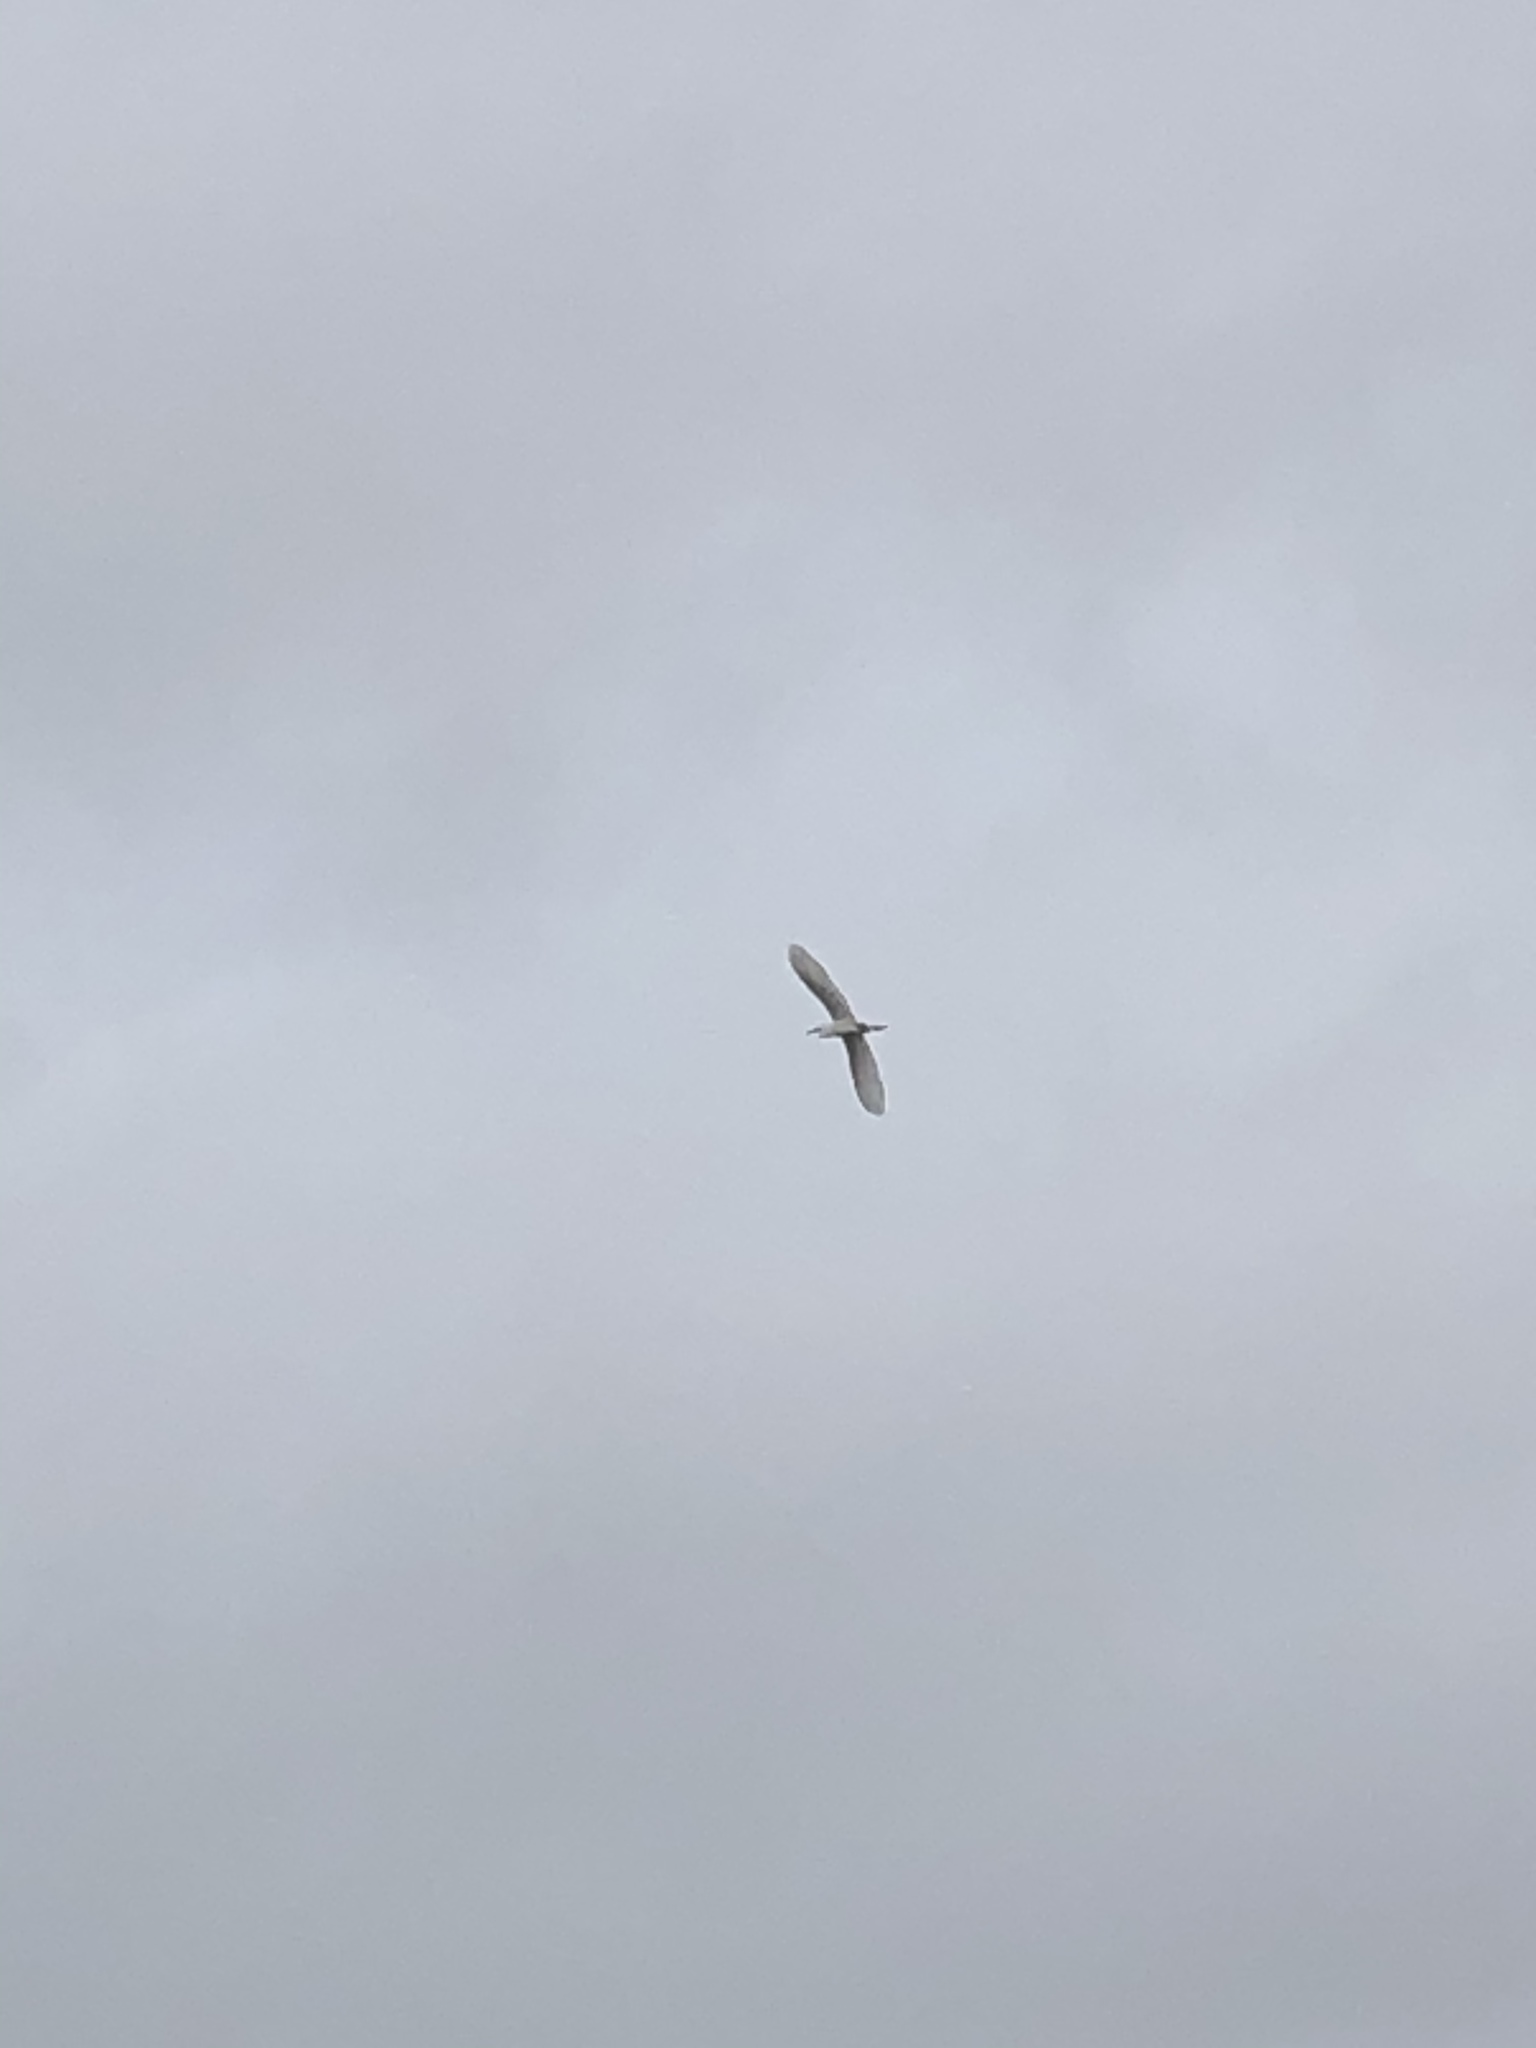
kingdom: Animalia
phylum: Chordata
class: Aves
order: Pelecaniformes
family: Ardeidae
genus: Ardea
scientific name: Ardea alba
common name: Great egret
